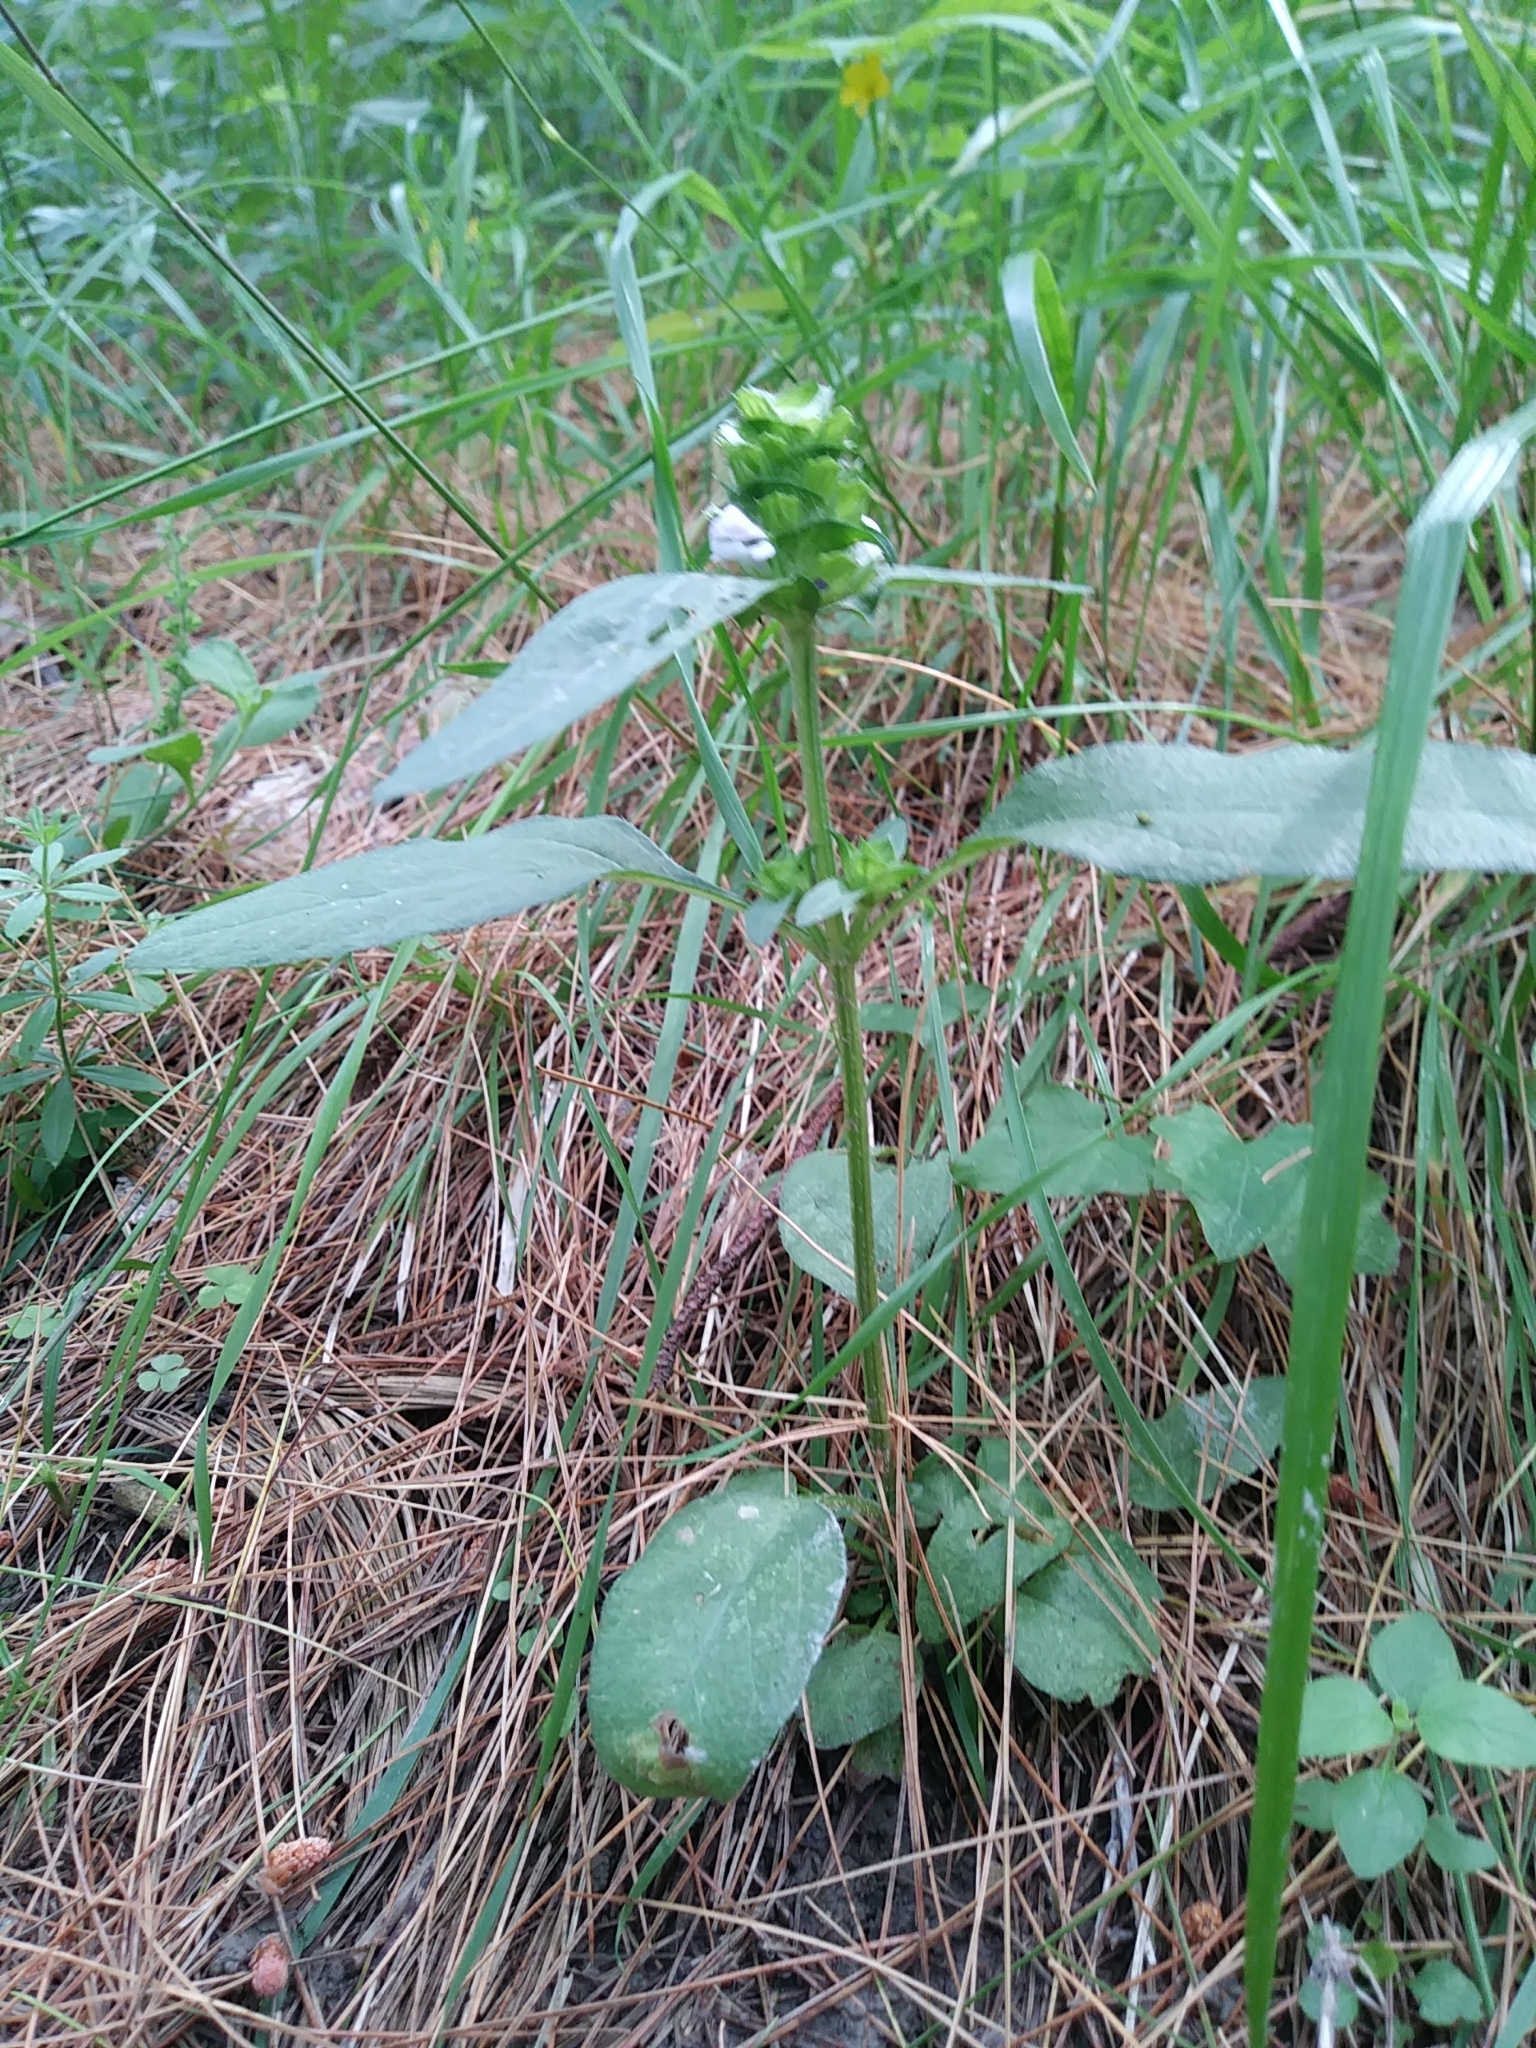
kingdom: Plantae
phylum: Tracheophyta
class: Magnoliopsida
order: Lamiales
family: Lamiaceae
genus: Prunella
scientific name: Prunella vulgaris
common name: Heal-all
